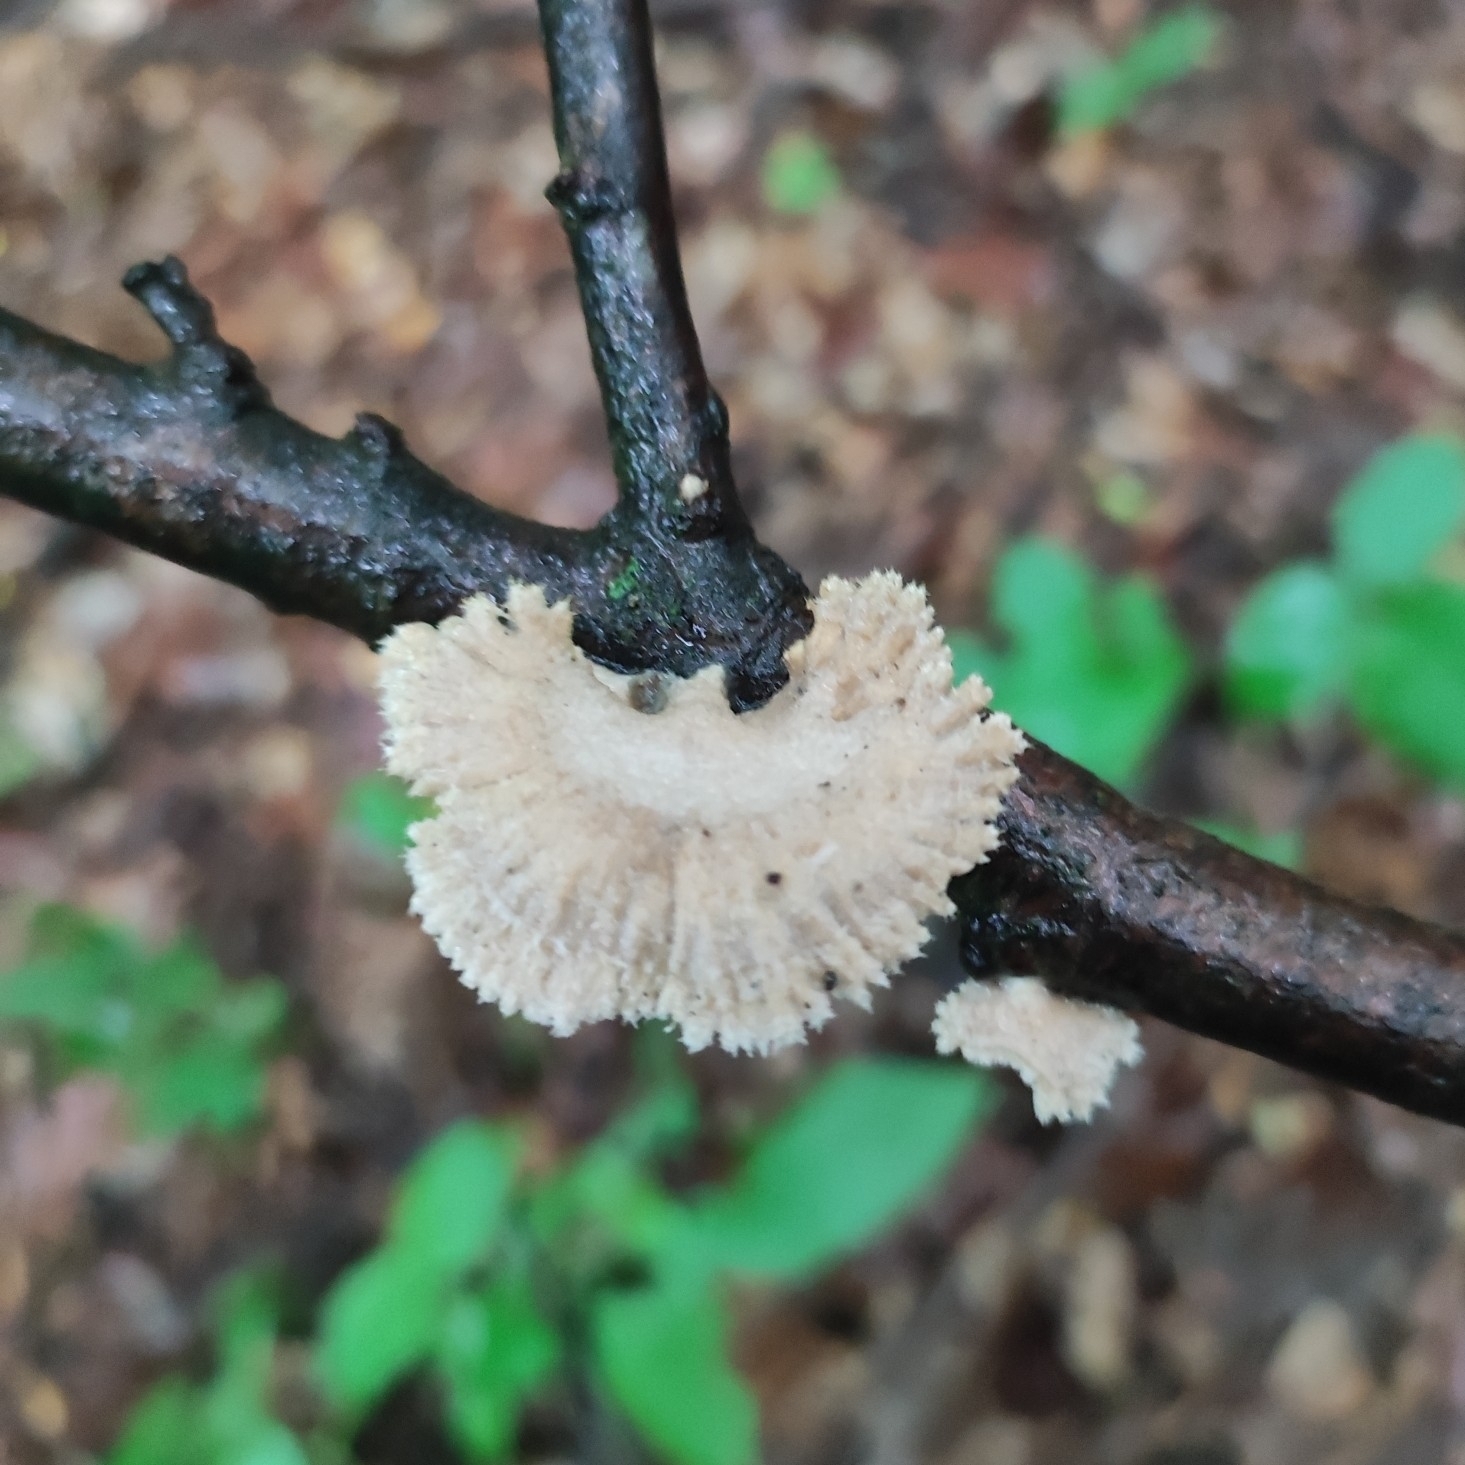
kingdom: Fungi
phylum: Basidiomycota
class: Agaricomycetes
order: Agaricales
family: Schizophyllaceae
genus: Schizophyllum
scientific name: Schizophyllum commune
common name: Common porecrust
